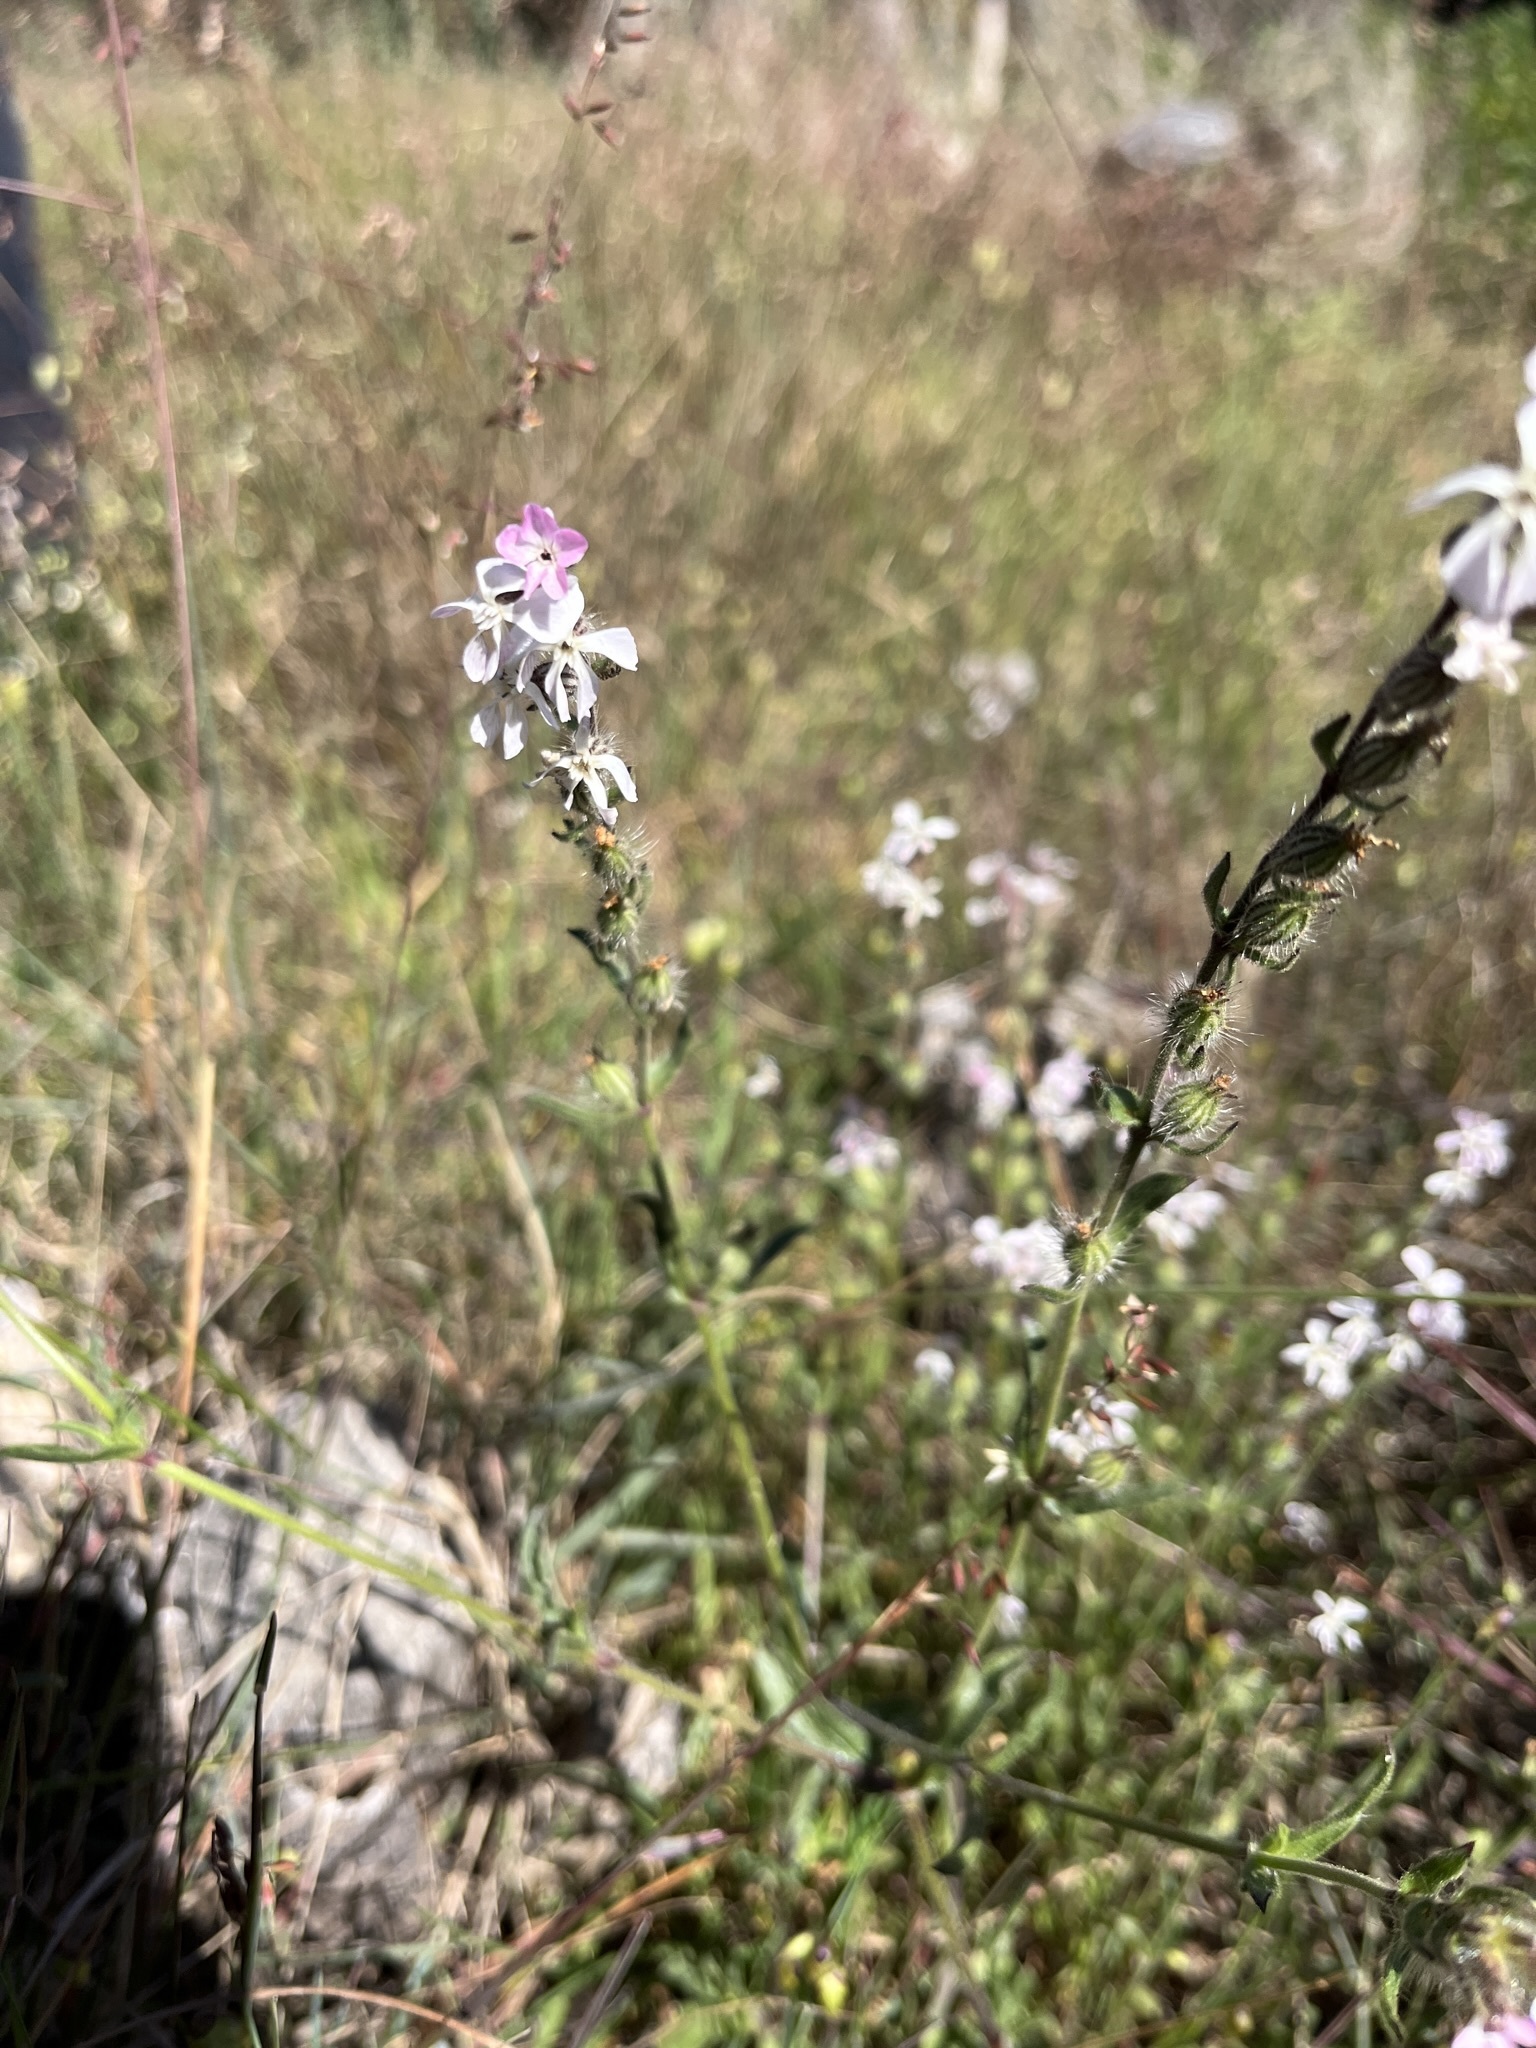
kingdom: Plantae
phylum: Tracheophyta
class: Magnoliopsida
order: Caryophyllales
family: Caryophyllaceae
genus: Silene
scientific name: Silene gallica
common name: Small-flowered catchfly
